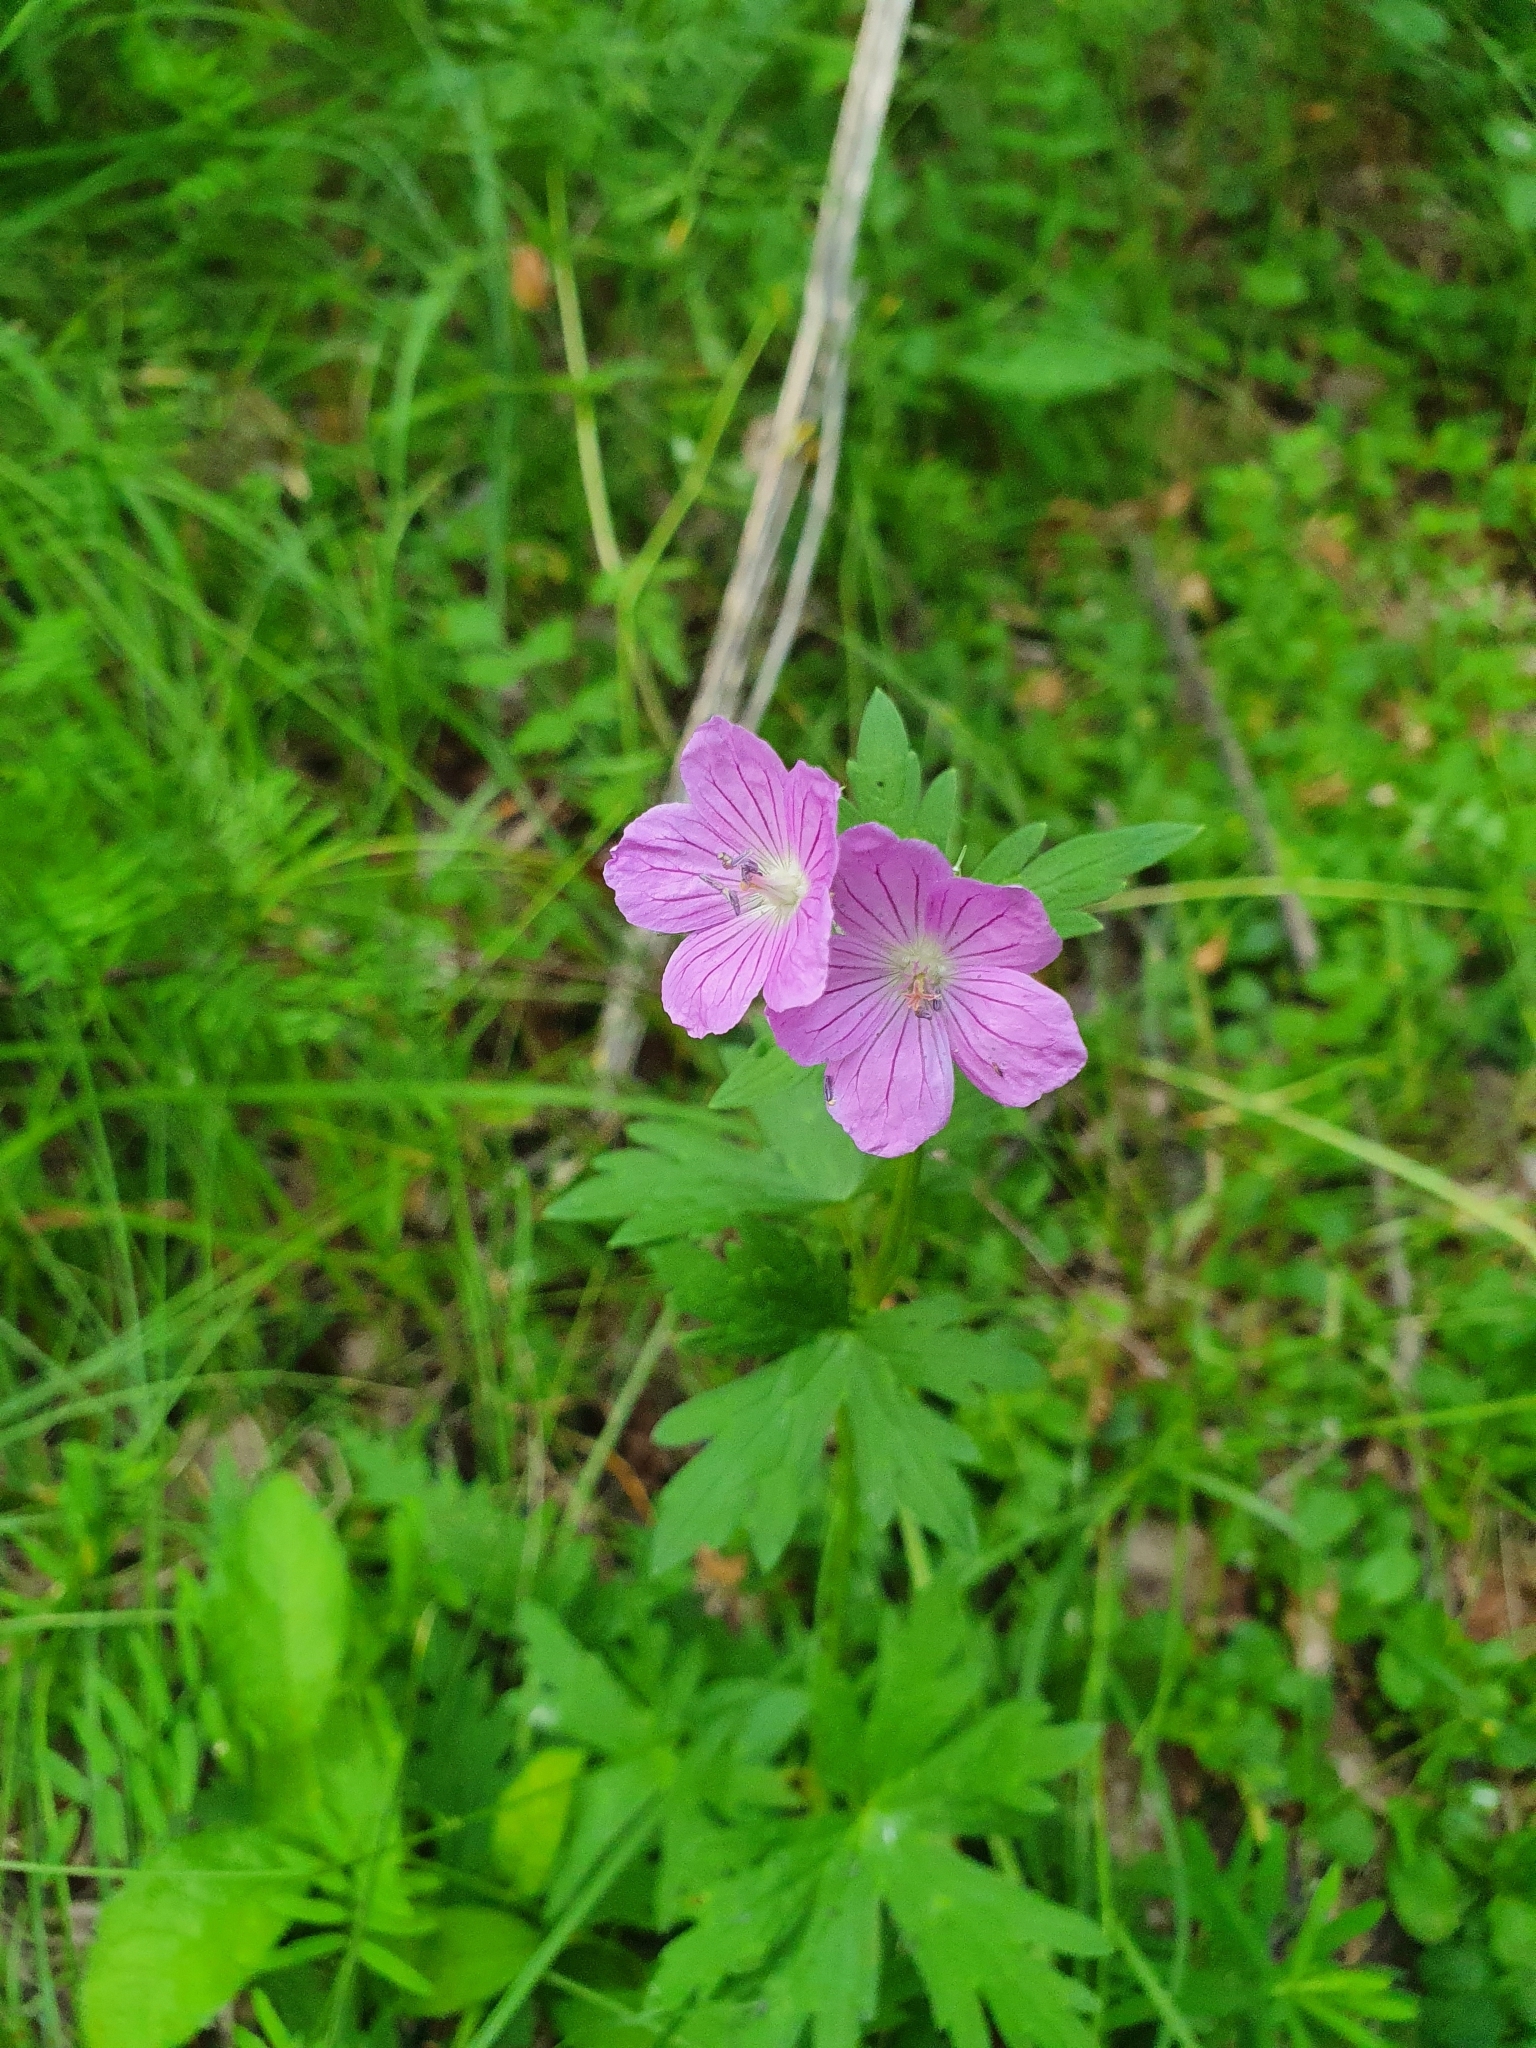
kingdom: Plantae
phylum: Tracheophyta
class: Magnoliopsida
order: Geraniales
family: Geraniaceae
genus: Geranium
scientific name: Geranium sanguineum
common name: Bloody crane's-bill
